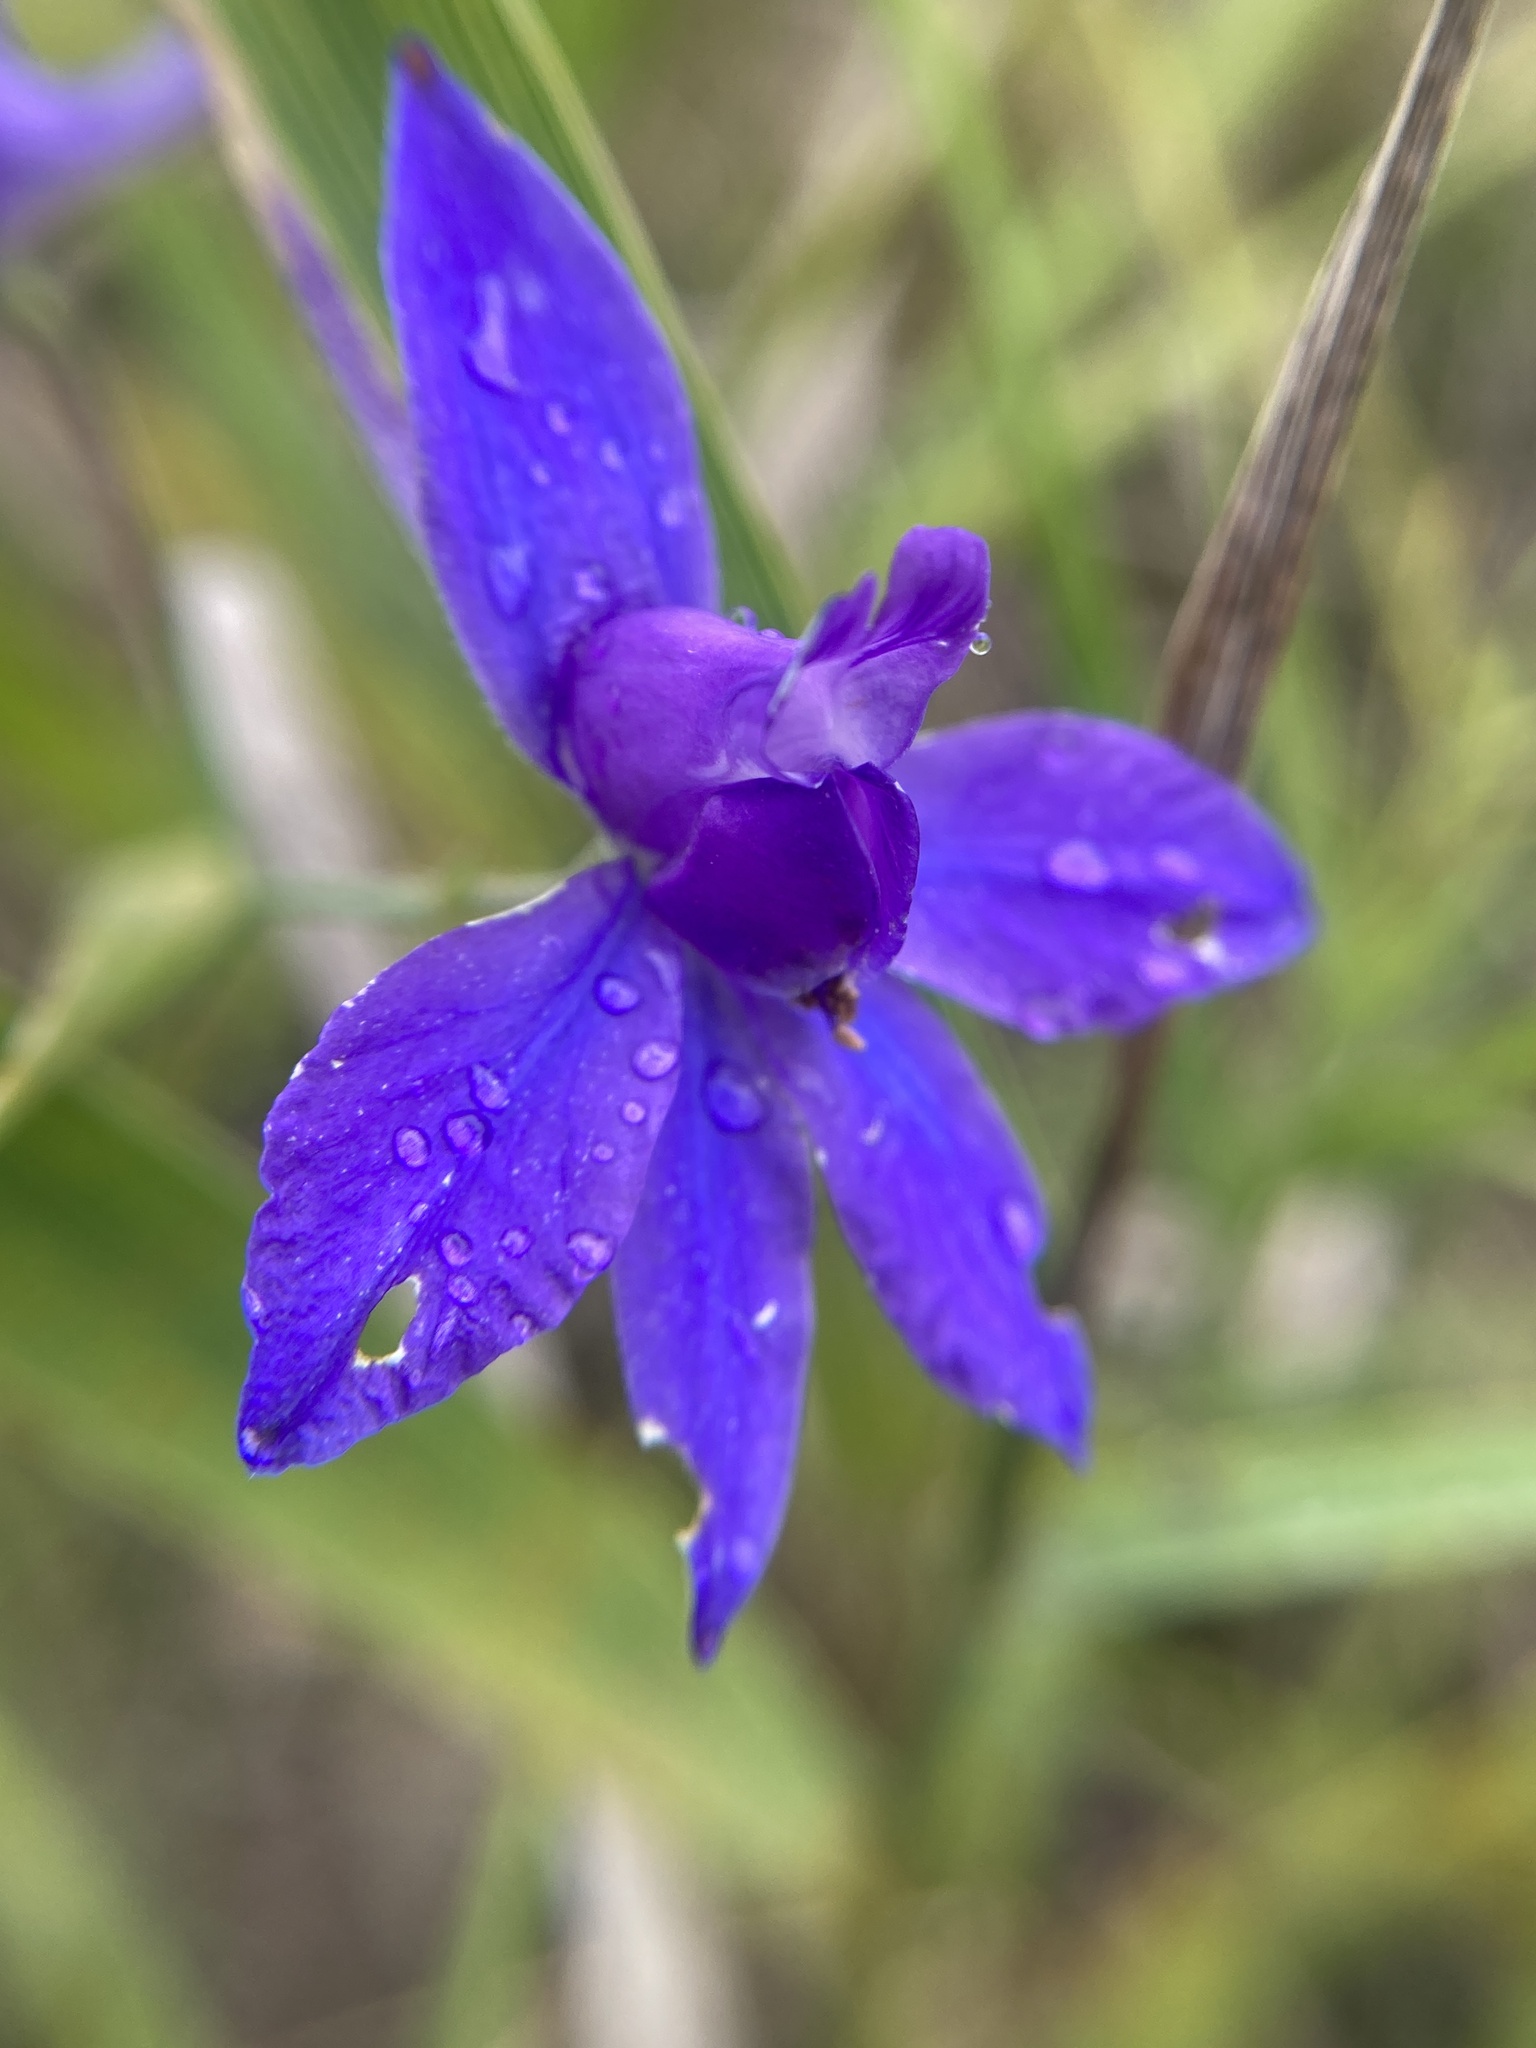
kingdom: Plantae
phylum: Tracheophyta
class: Magnoliopsida
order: Ranunculales
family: Ranunculaceae
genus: Delphinium
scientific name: Delphinium consolida
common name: Branching larkspur
